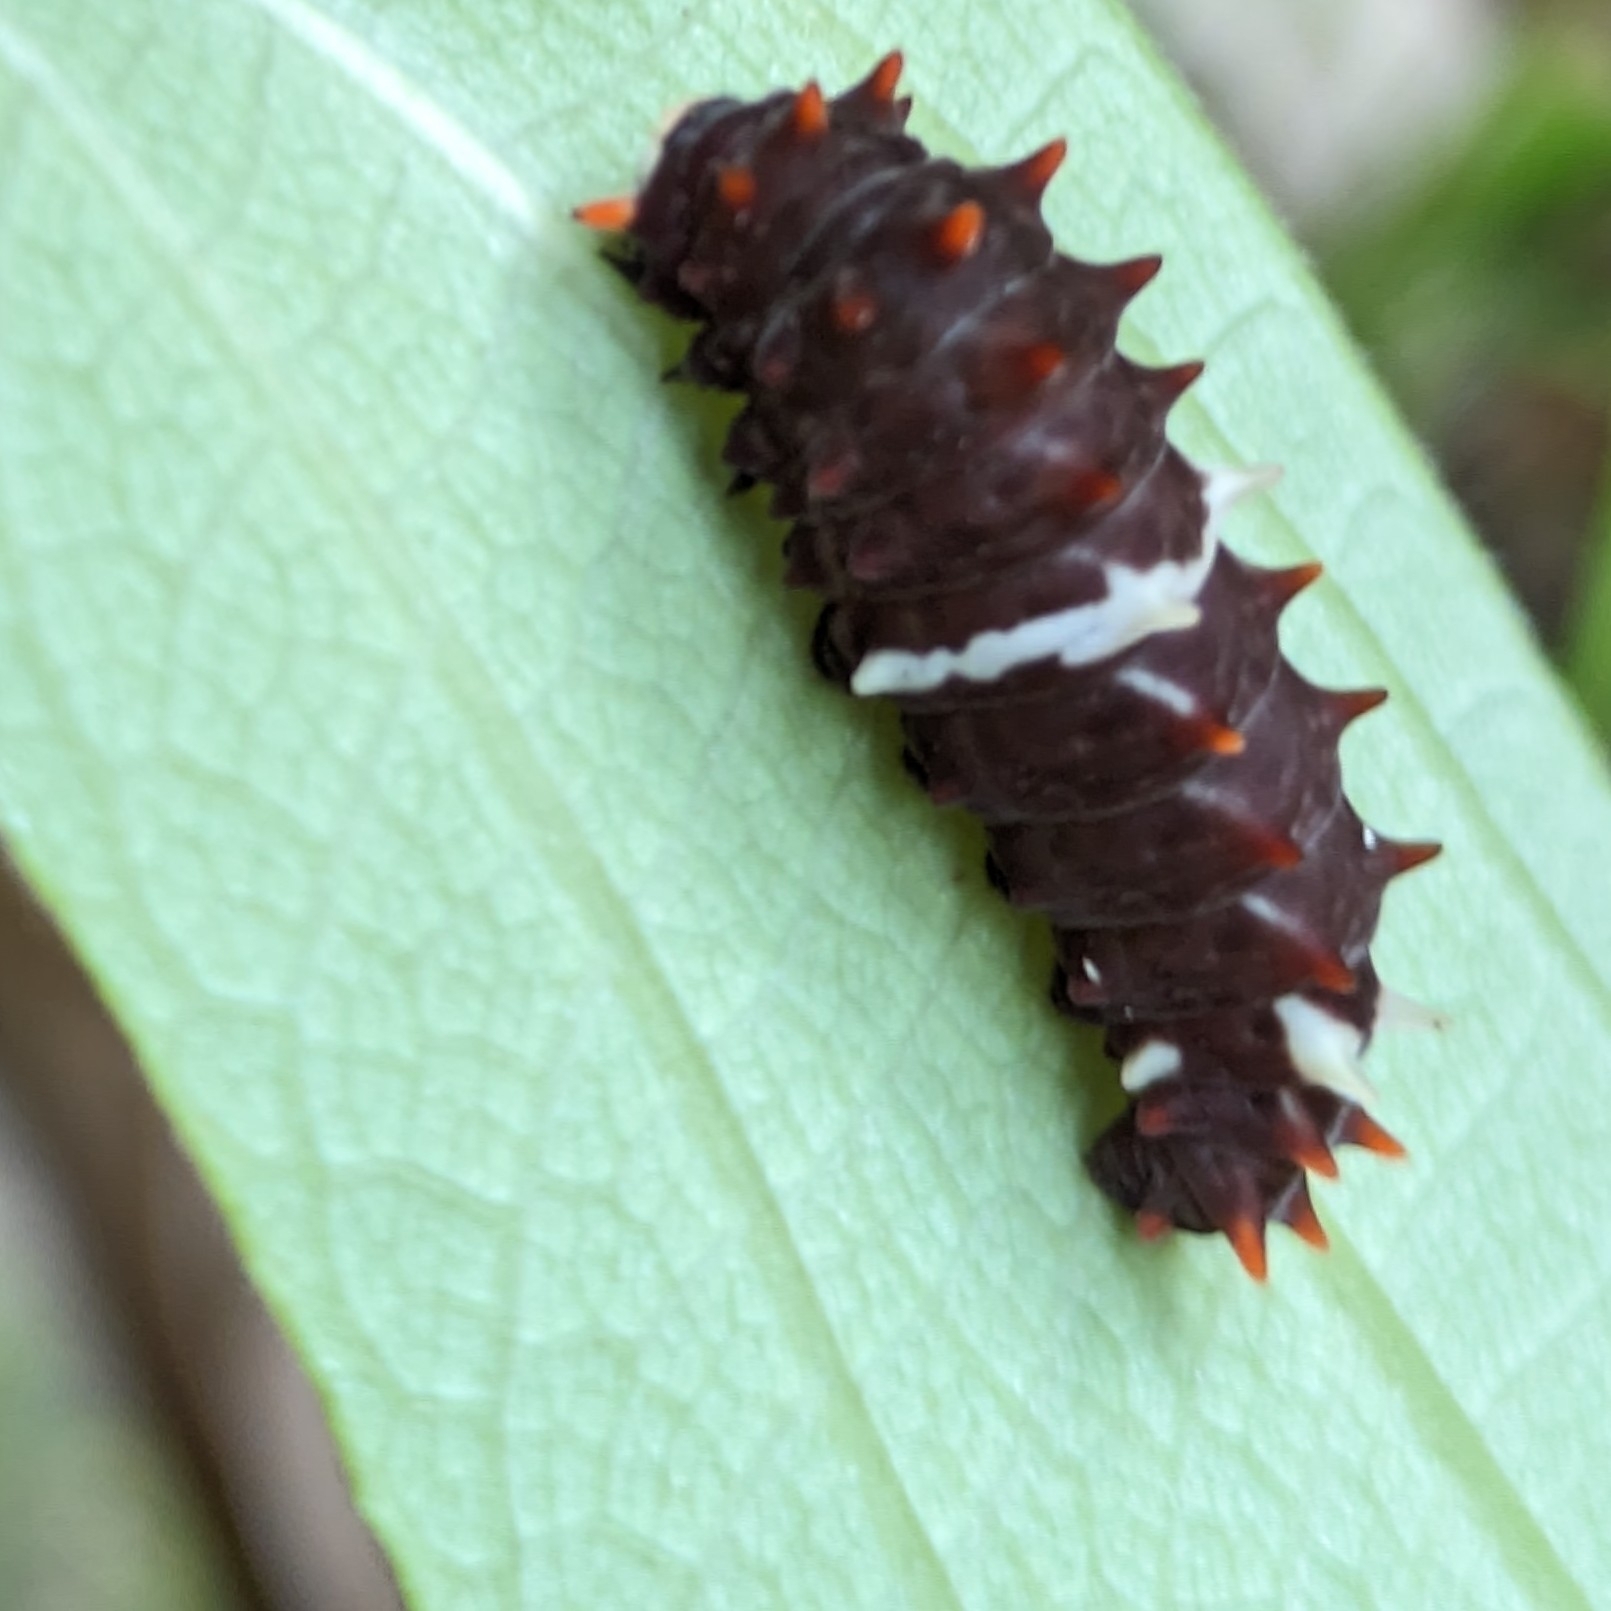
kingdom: Animalia
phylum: Arthropoda
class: Insecta
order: Lepidoptera
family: Papilionidae
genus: Pachliopta
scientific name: Pachliopta pandiyana
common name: Malabar rose
